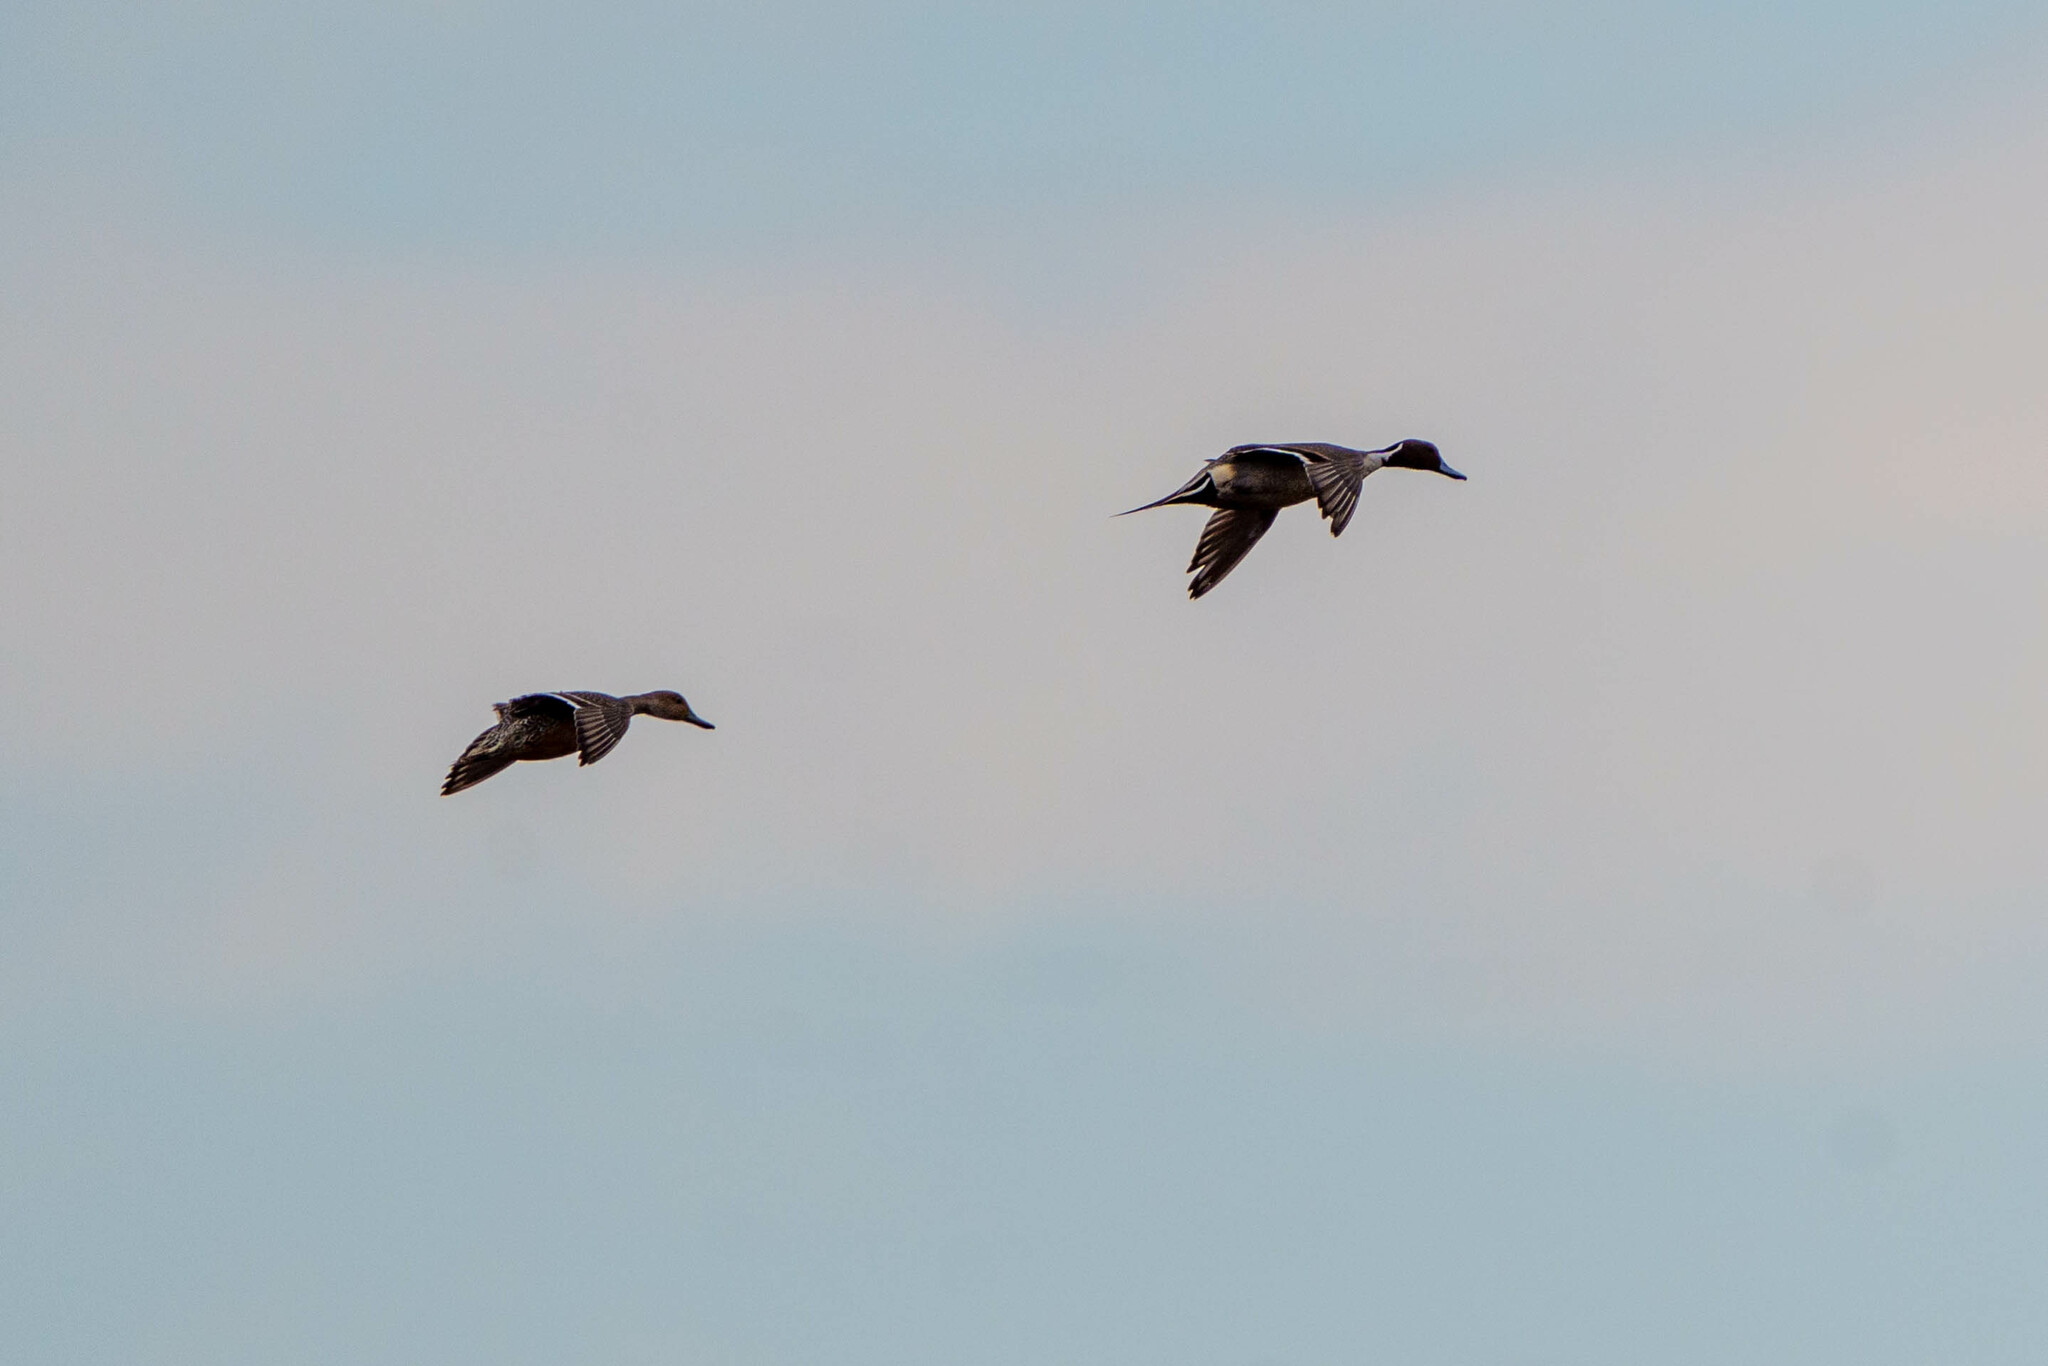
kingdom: Animalia
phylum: Chordata
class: Aves
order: Anseriformes
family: Anatidae
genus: Anas
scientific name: Anas acuta
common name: Northern pintail
